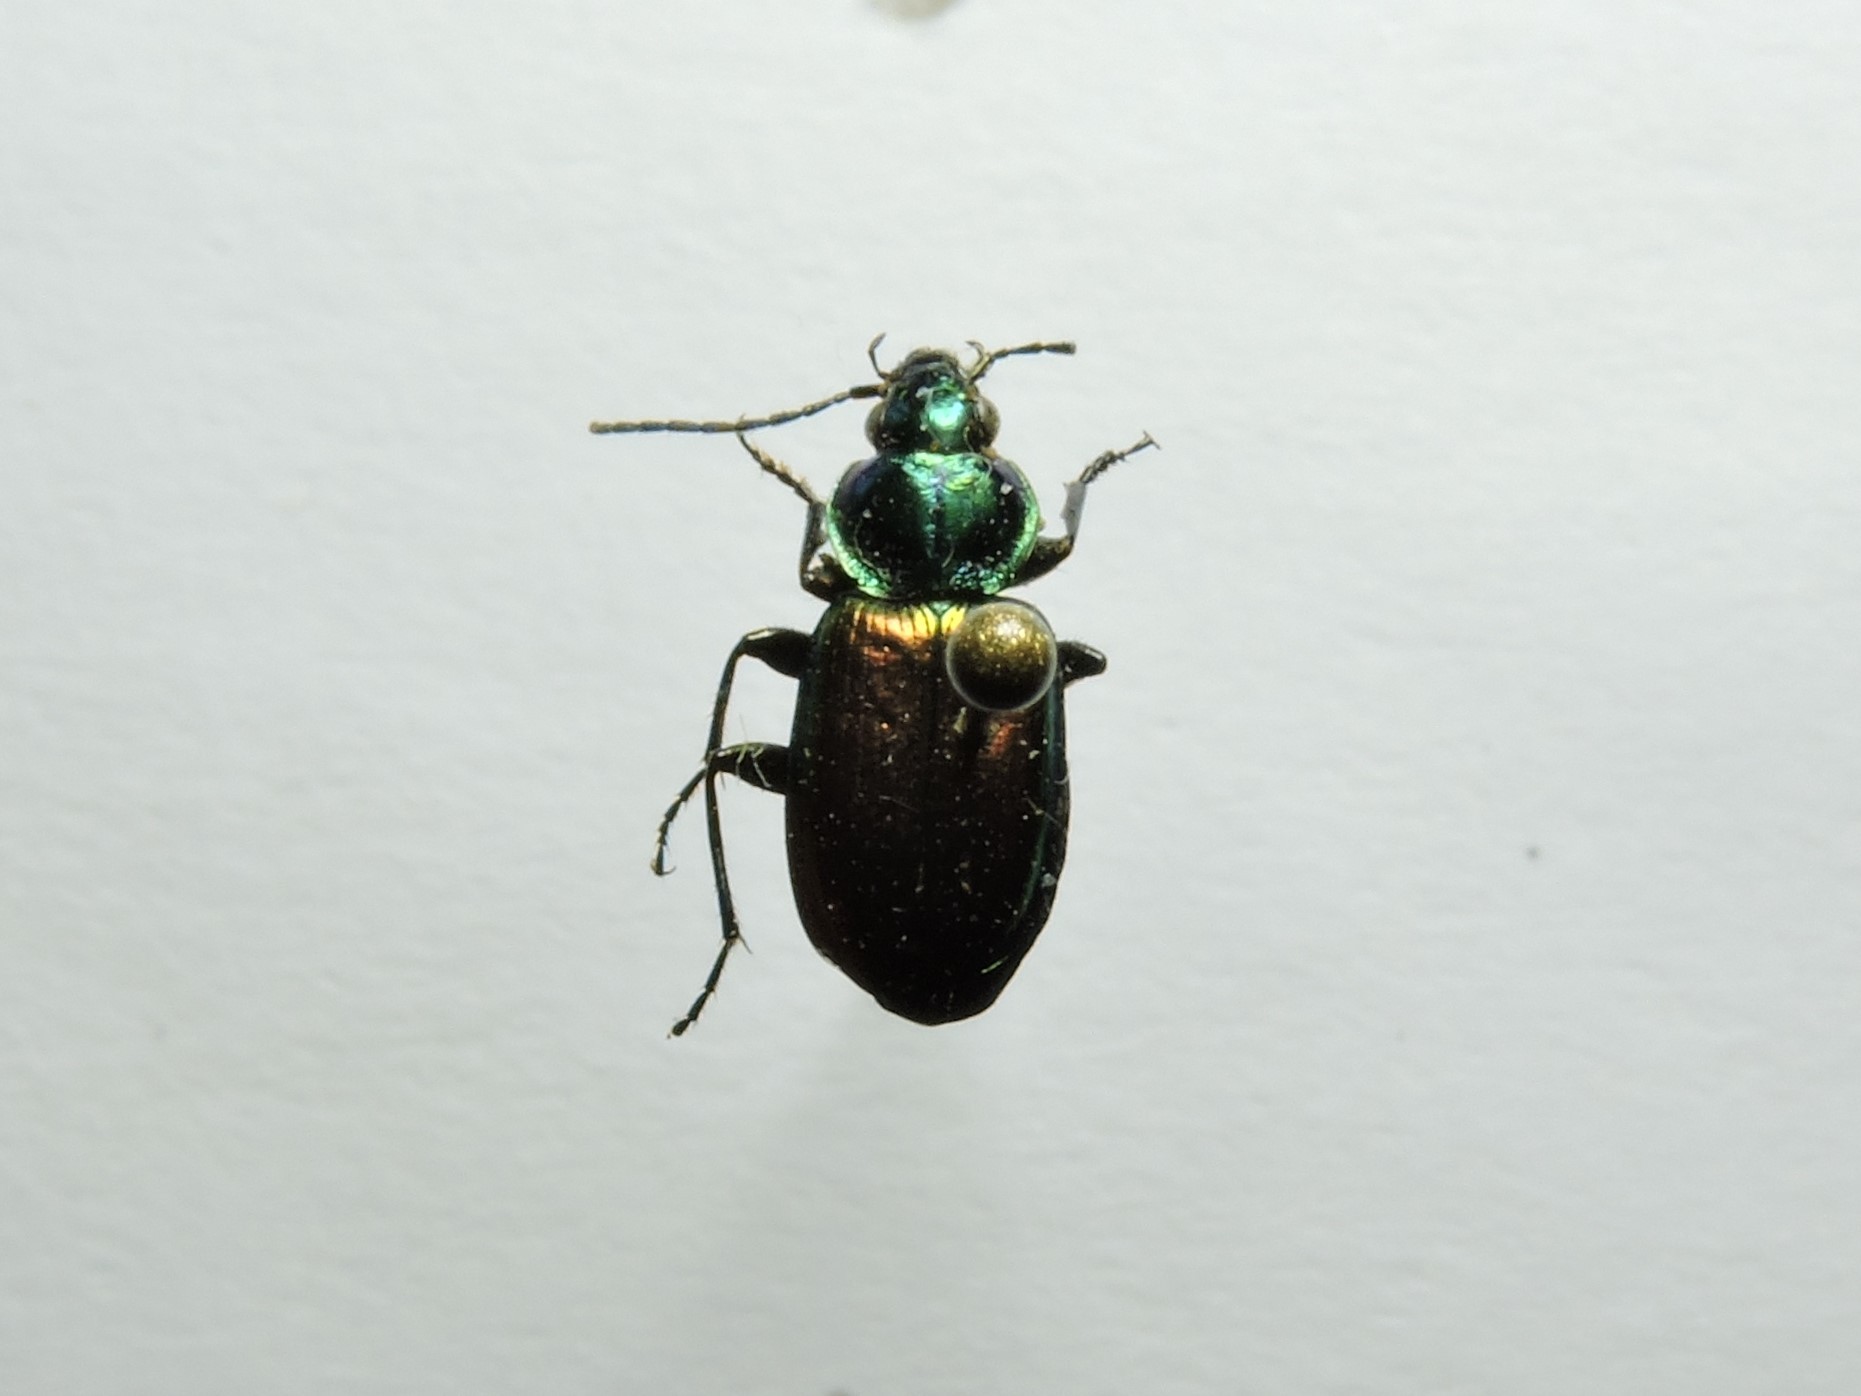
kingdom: Animalia
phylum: Arthropoda
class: Insecta
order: Coleoptera
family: Carabidae
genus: Agonum
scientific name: Agonum sexpunctatum
